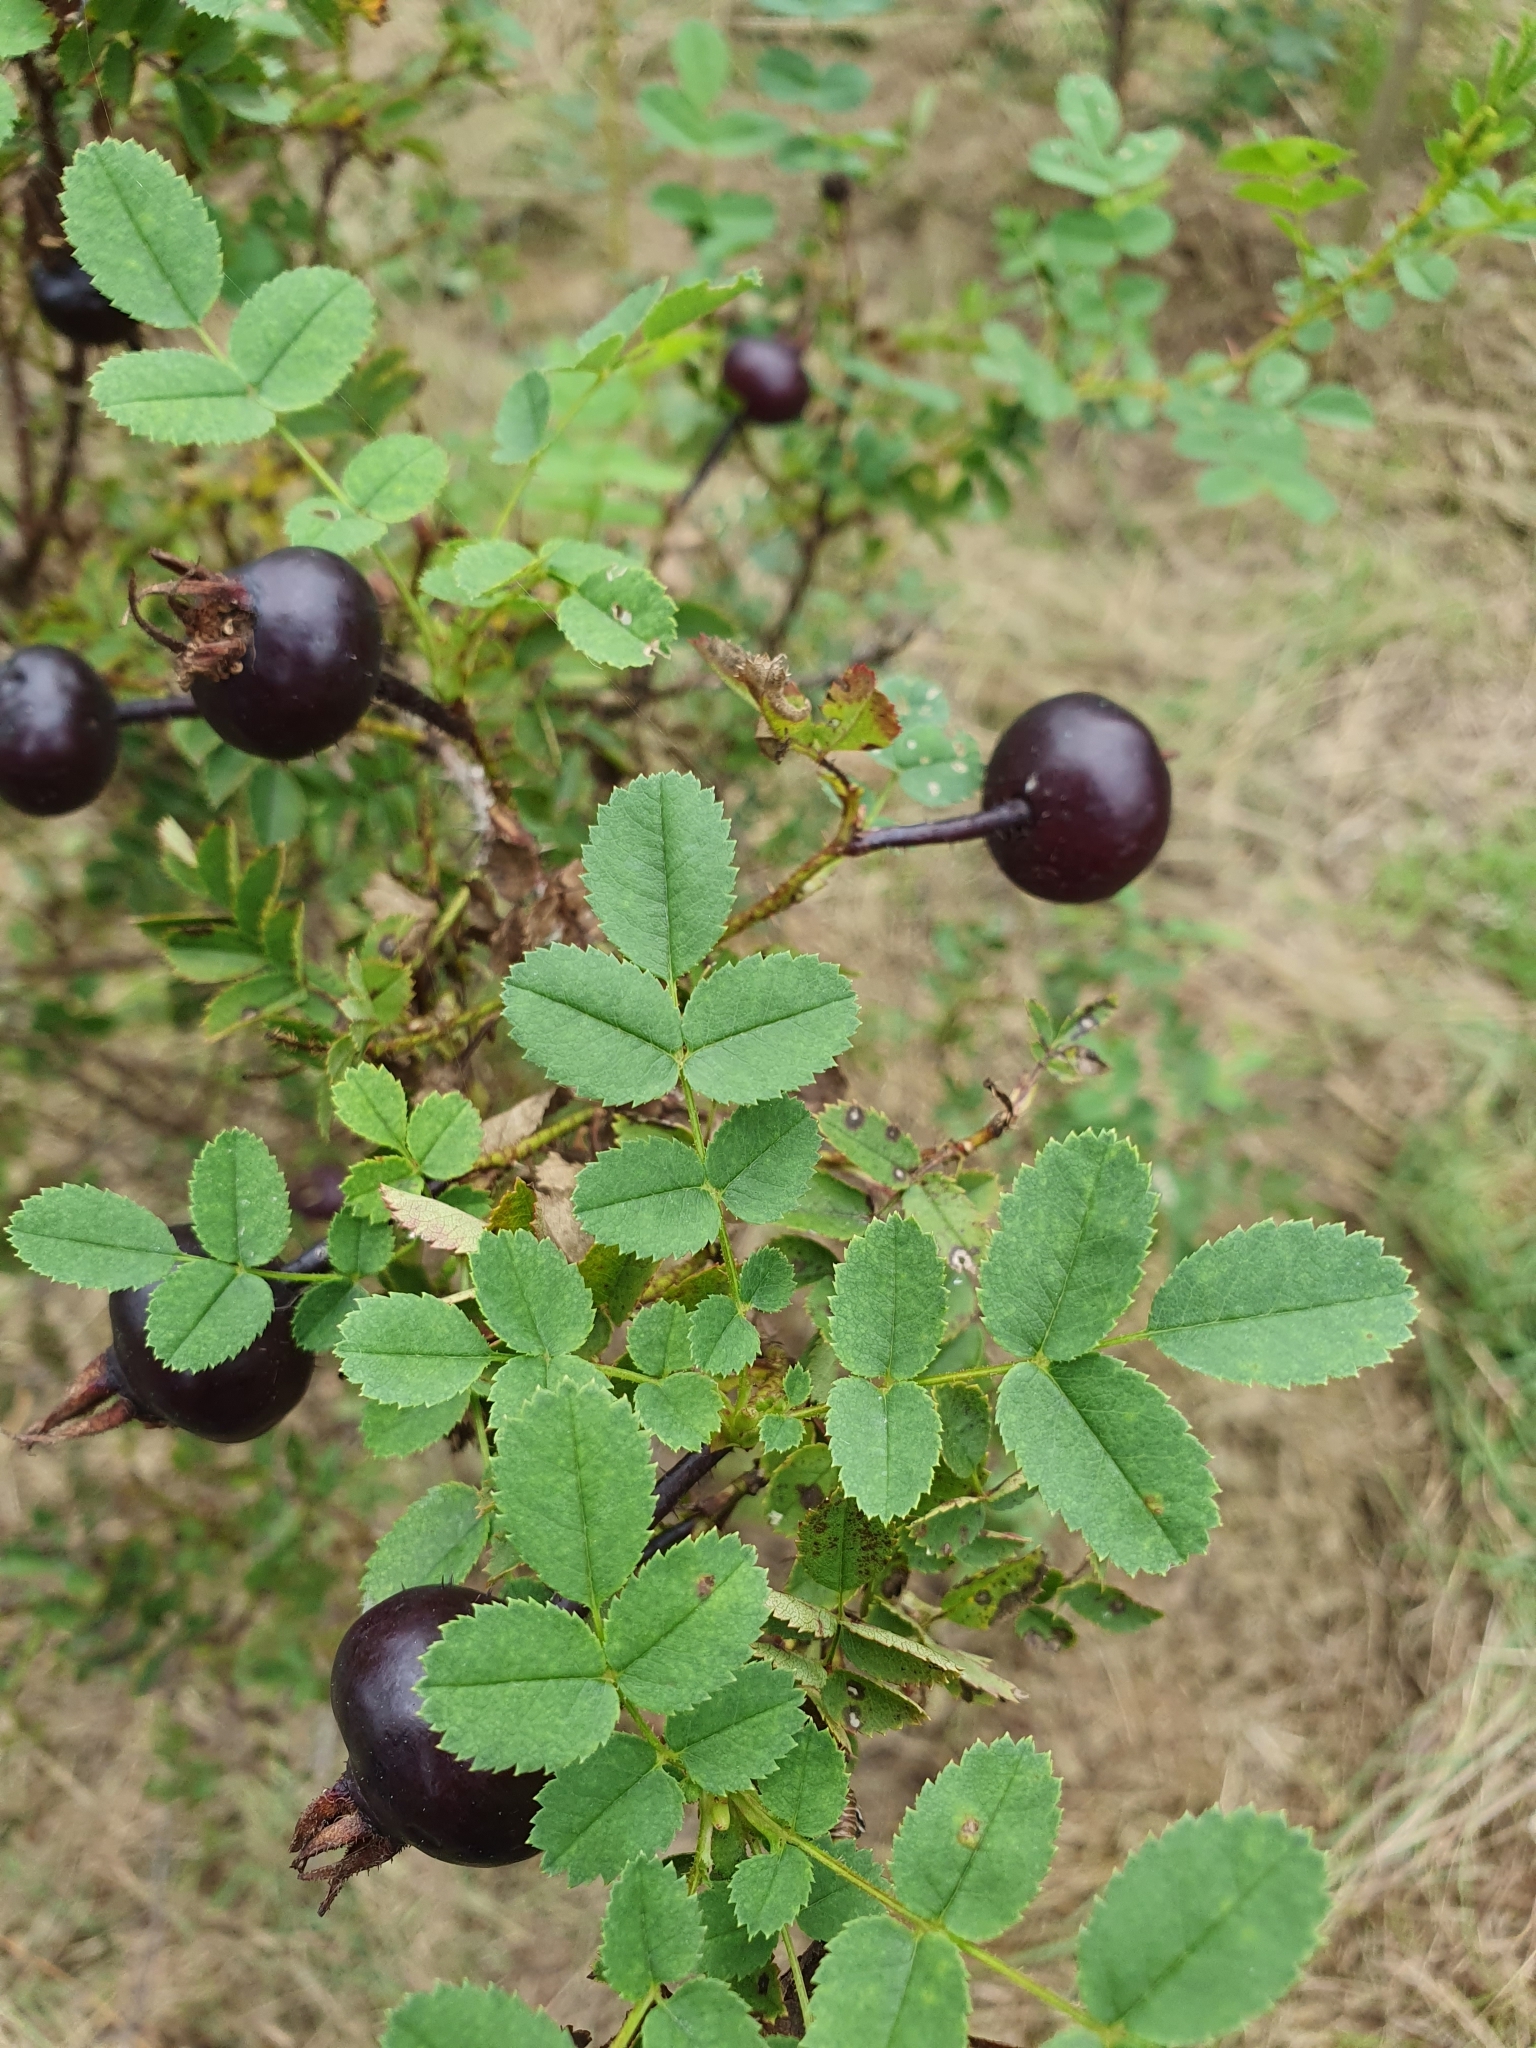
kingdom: Plantae
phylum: Tracheophyta
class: Magnoliopsida
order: Rosales
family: Rosaceae
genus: Rosa
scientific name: Rosa spinosissima
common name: Burnet rose
